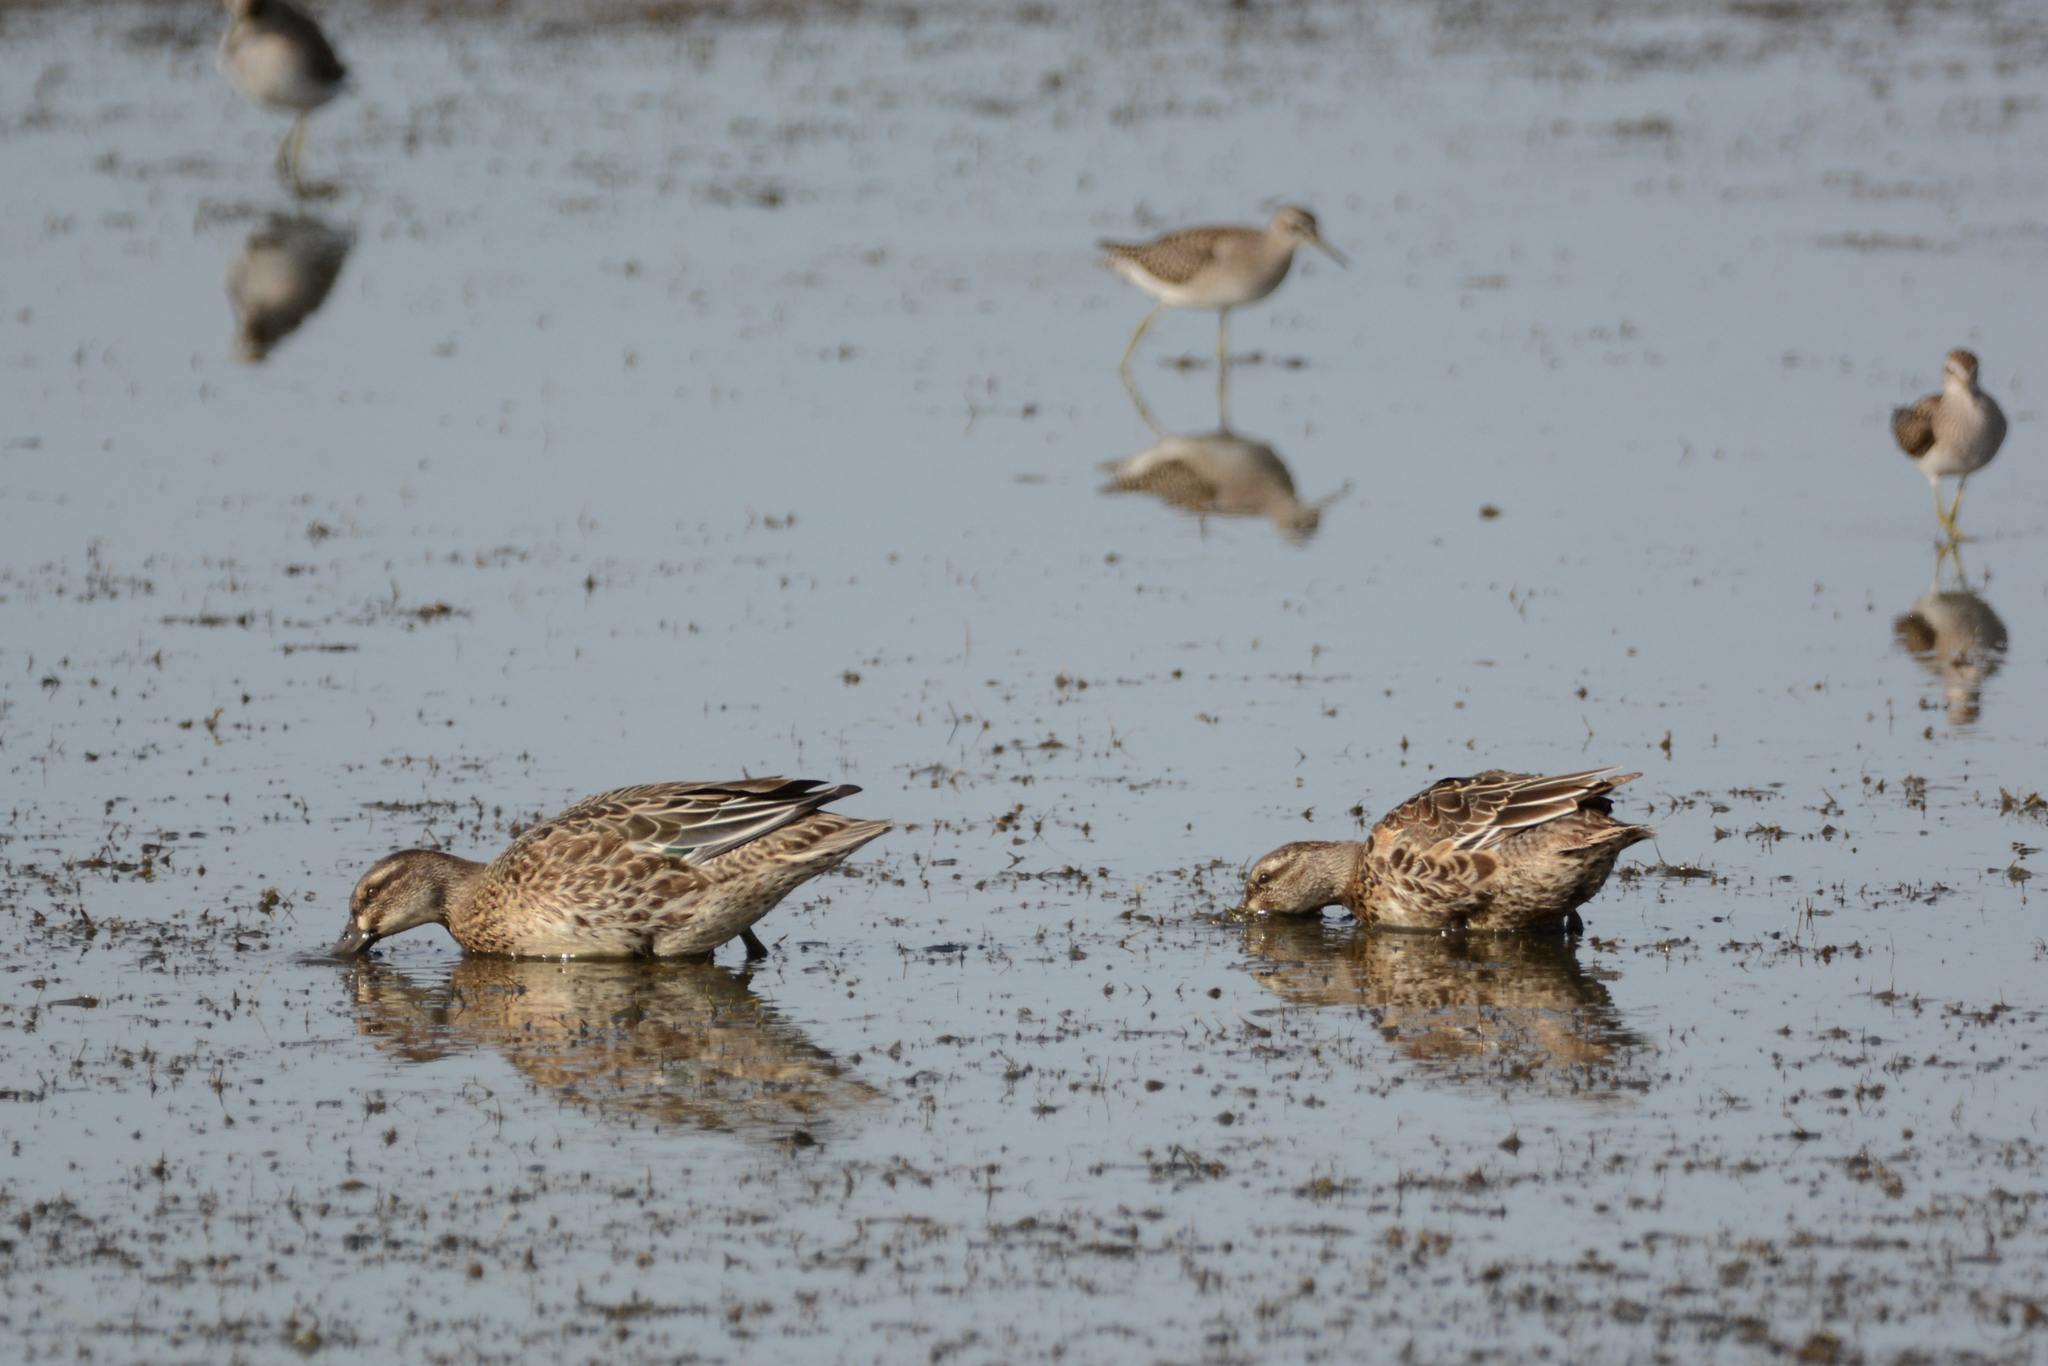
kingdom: Animalia
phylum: Chordata
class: Aves
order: Anseriformes
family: Anatidae
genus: Spatula
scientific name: Spatula querquedula
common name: Garganey
